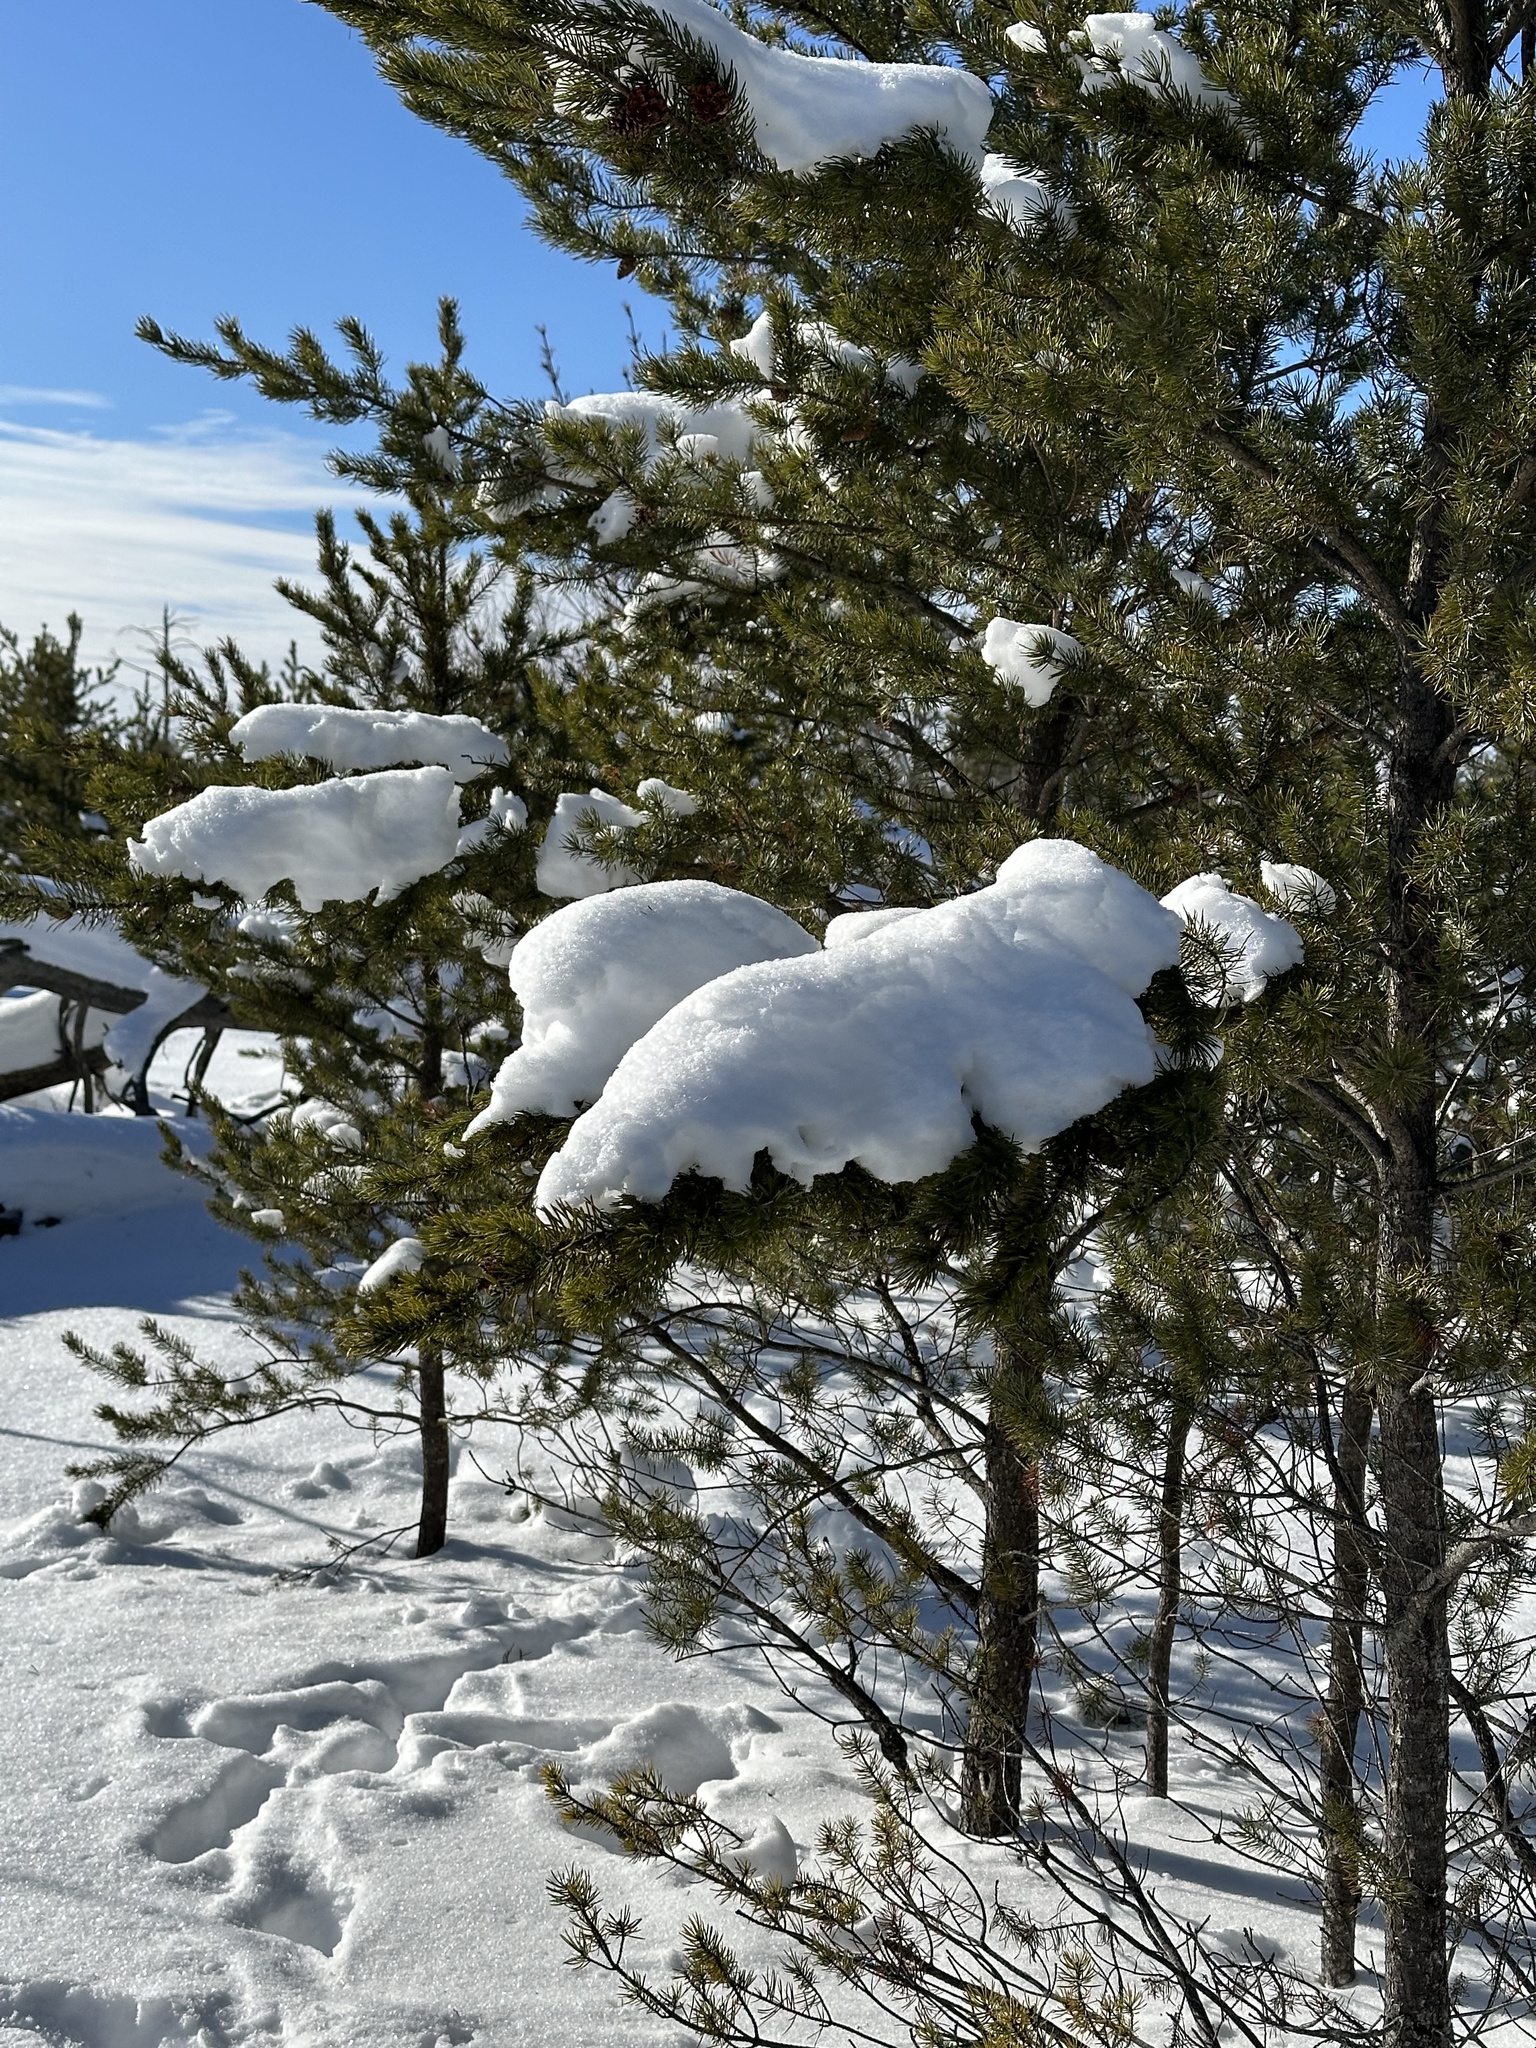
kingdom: Plantae
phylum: Tracheophyta
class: Pinopsida
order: Pinales
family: Pinaceae
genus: Pinus
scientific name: Pinus banksiana
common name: Jack pine
